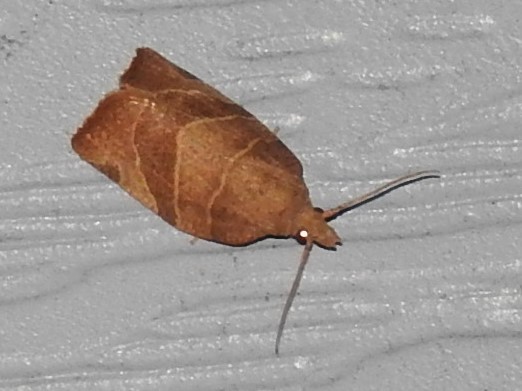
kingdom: Animalia
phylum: Arthropoda
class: Insecta
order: Lepidoptera
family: Tortricidae
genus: Pandemis
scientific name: Pandemis limitata
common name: Three-lined leafroller moth
